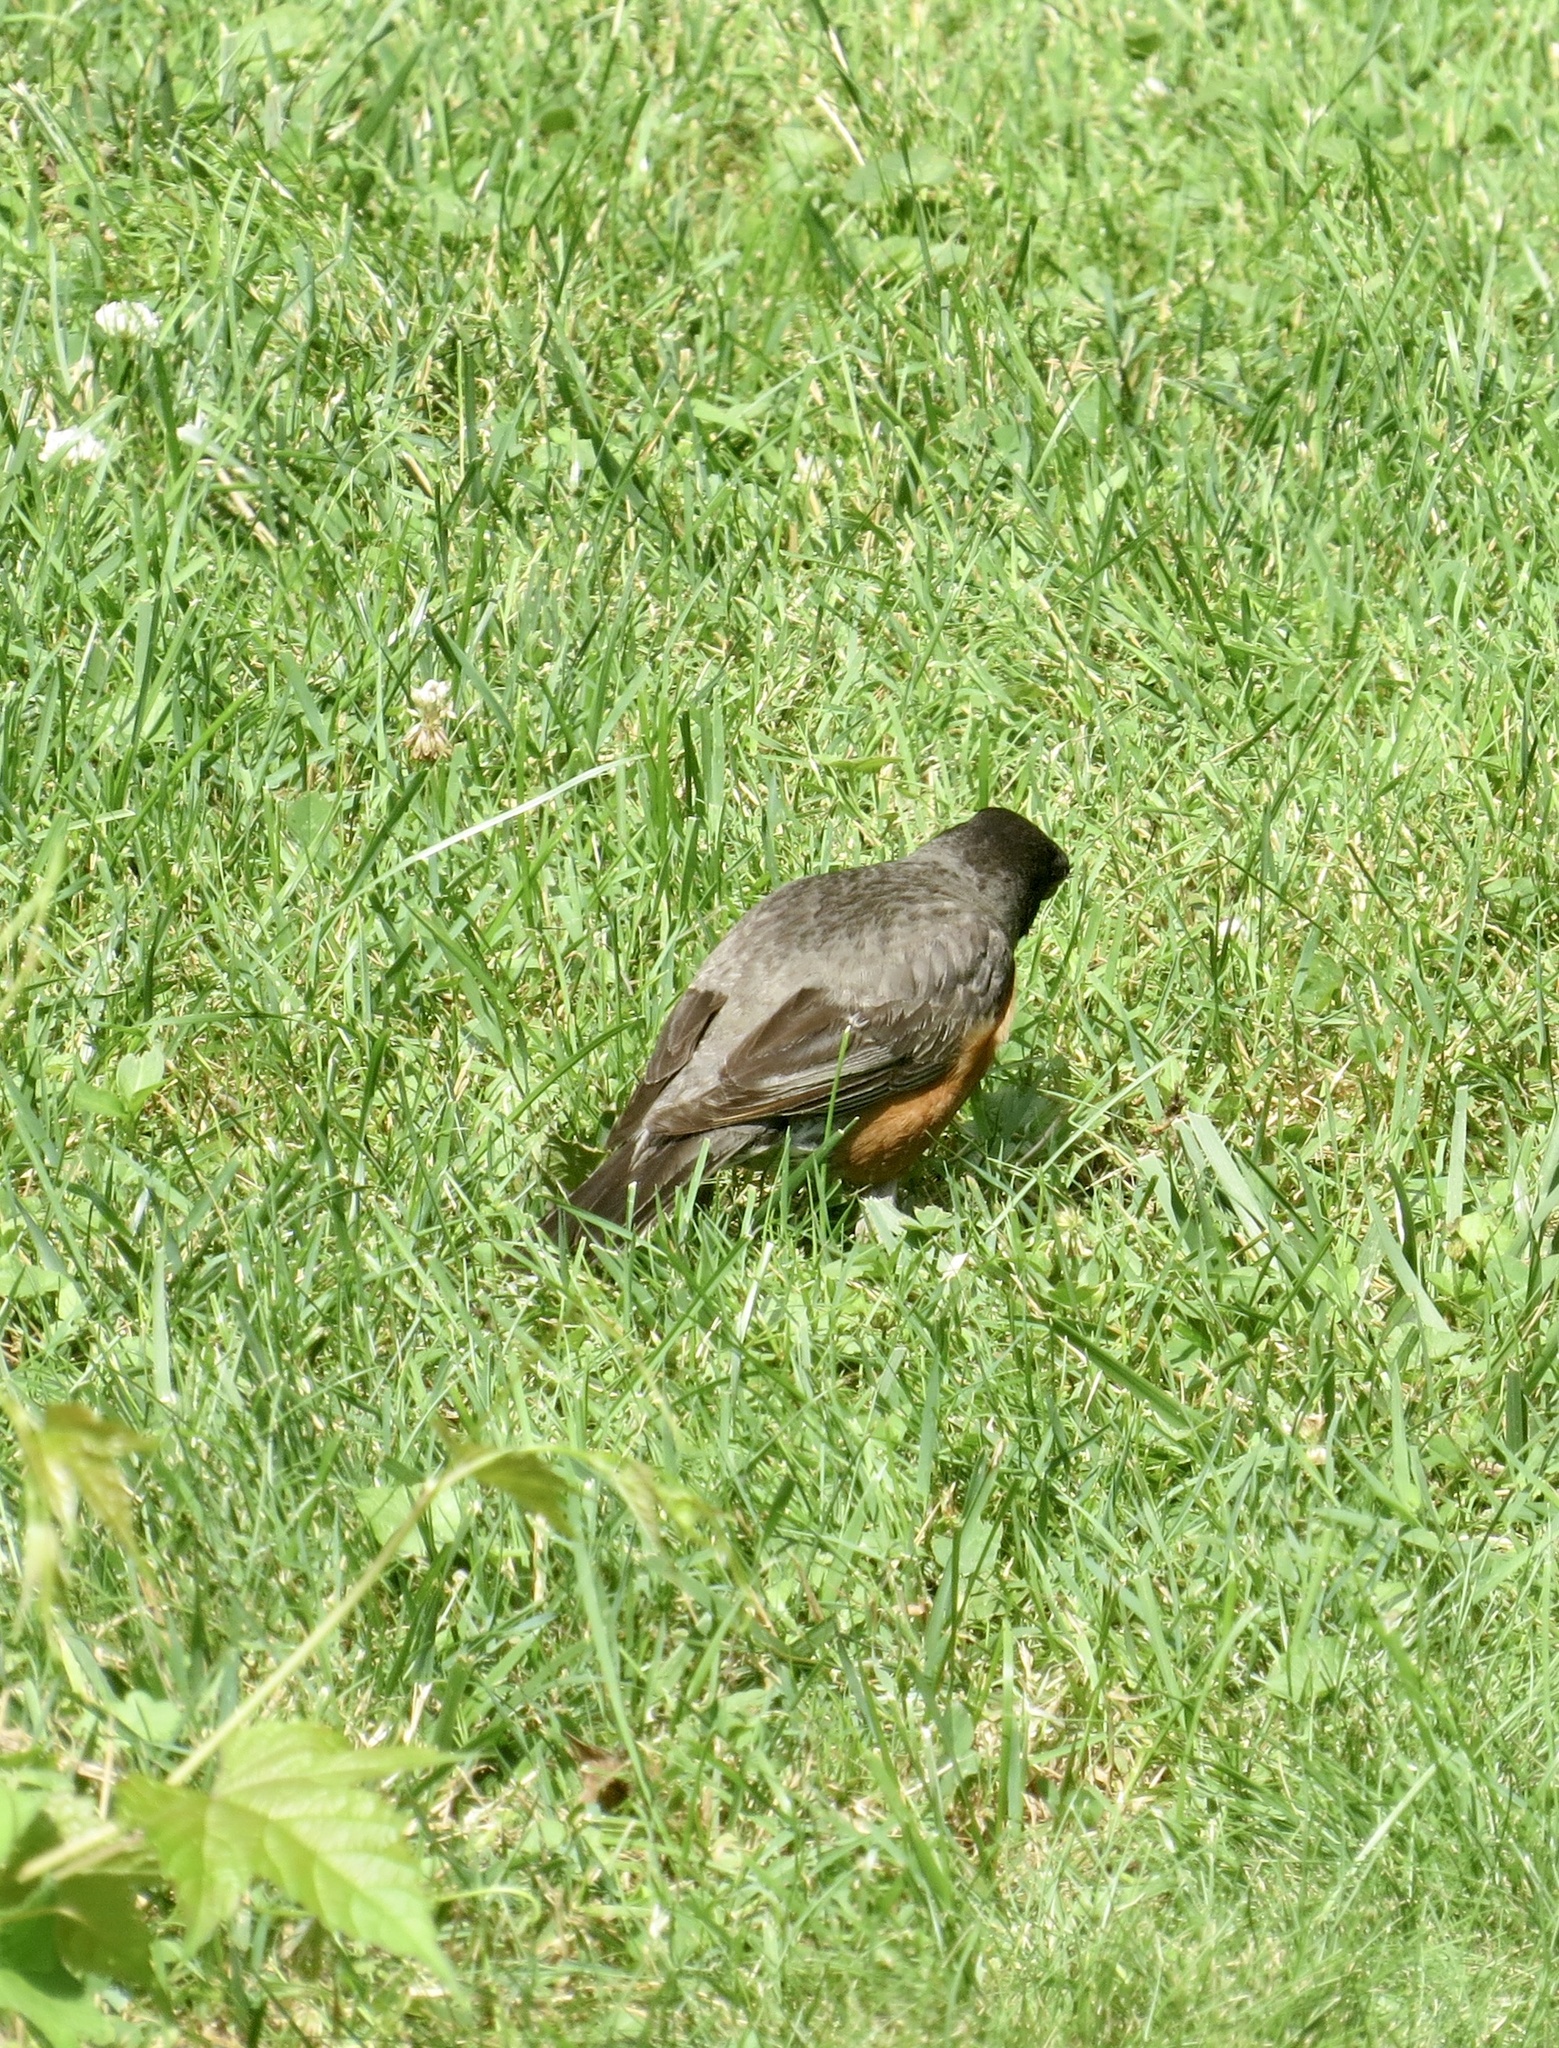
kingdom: Animalia
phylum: Chordata
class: Aves
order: Passeriformes
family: Turdidae
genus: Turdus
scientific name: Turdus migratorius
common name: American robin
